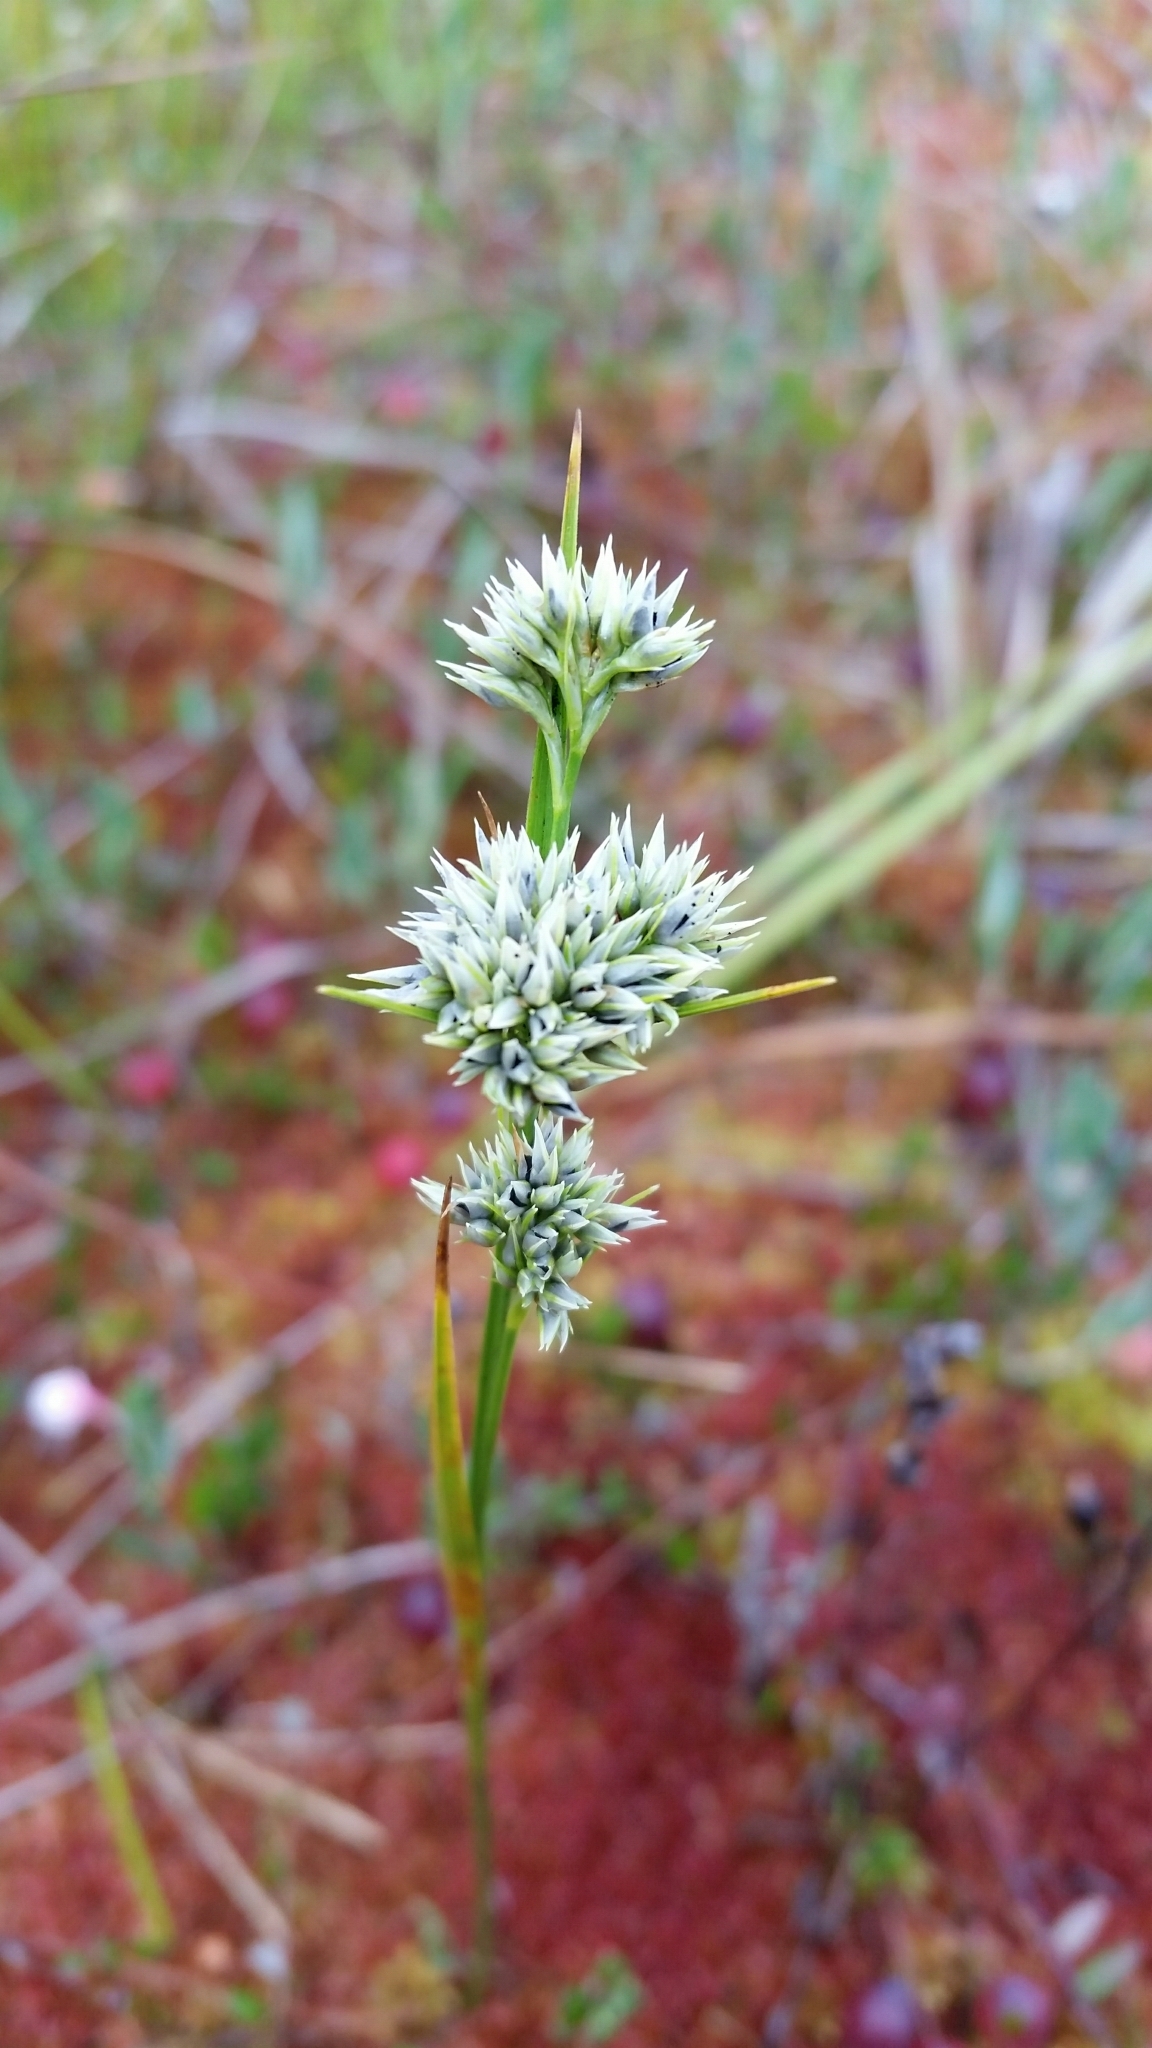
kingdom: Fungi
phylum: Basidiomycota
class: Ustilaginomycetes
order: Ustilaginales
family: Anthracoideaceae
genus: Ustanciosporium
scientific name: Ustanciosporium majus
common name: Small spored white beak-sedge smut
